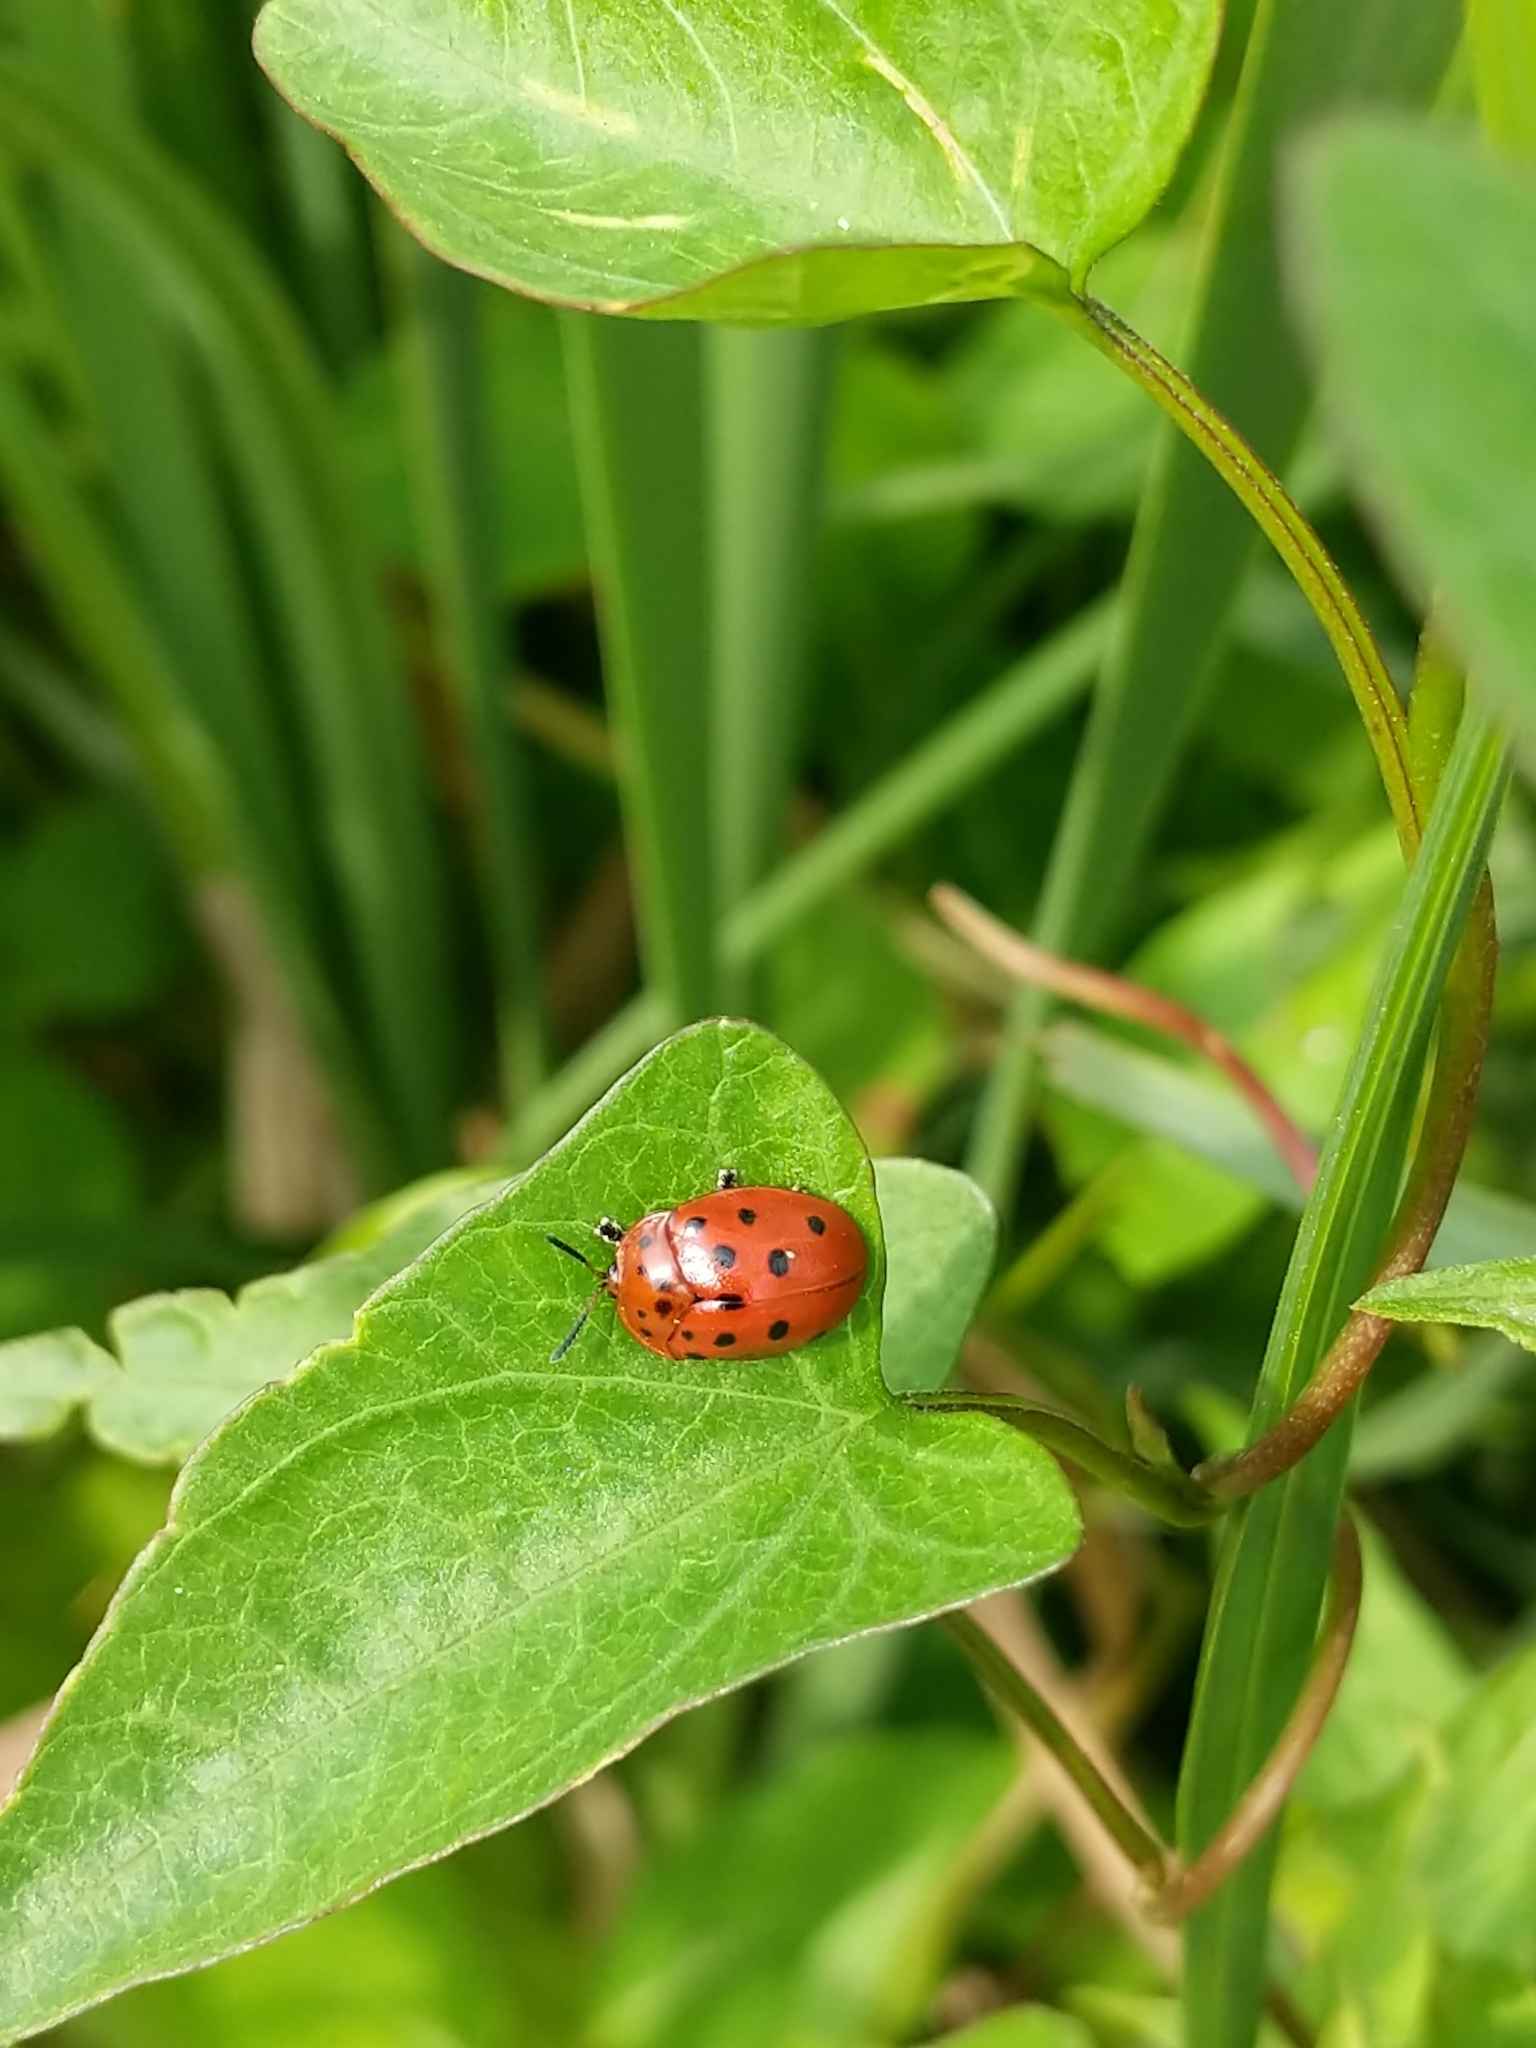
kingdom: Animalia
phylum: Arthropoda
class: Insecta
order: Coleoptera
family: Chrysomelidae
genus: Chelymorpha
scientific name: Chelymorpha cassidea
